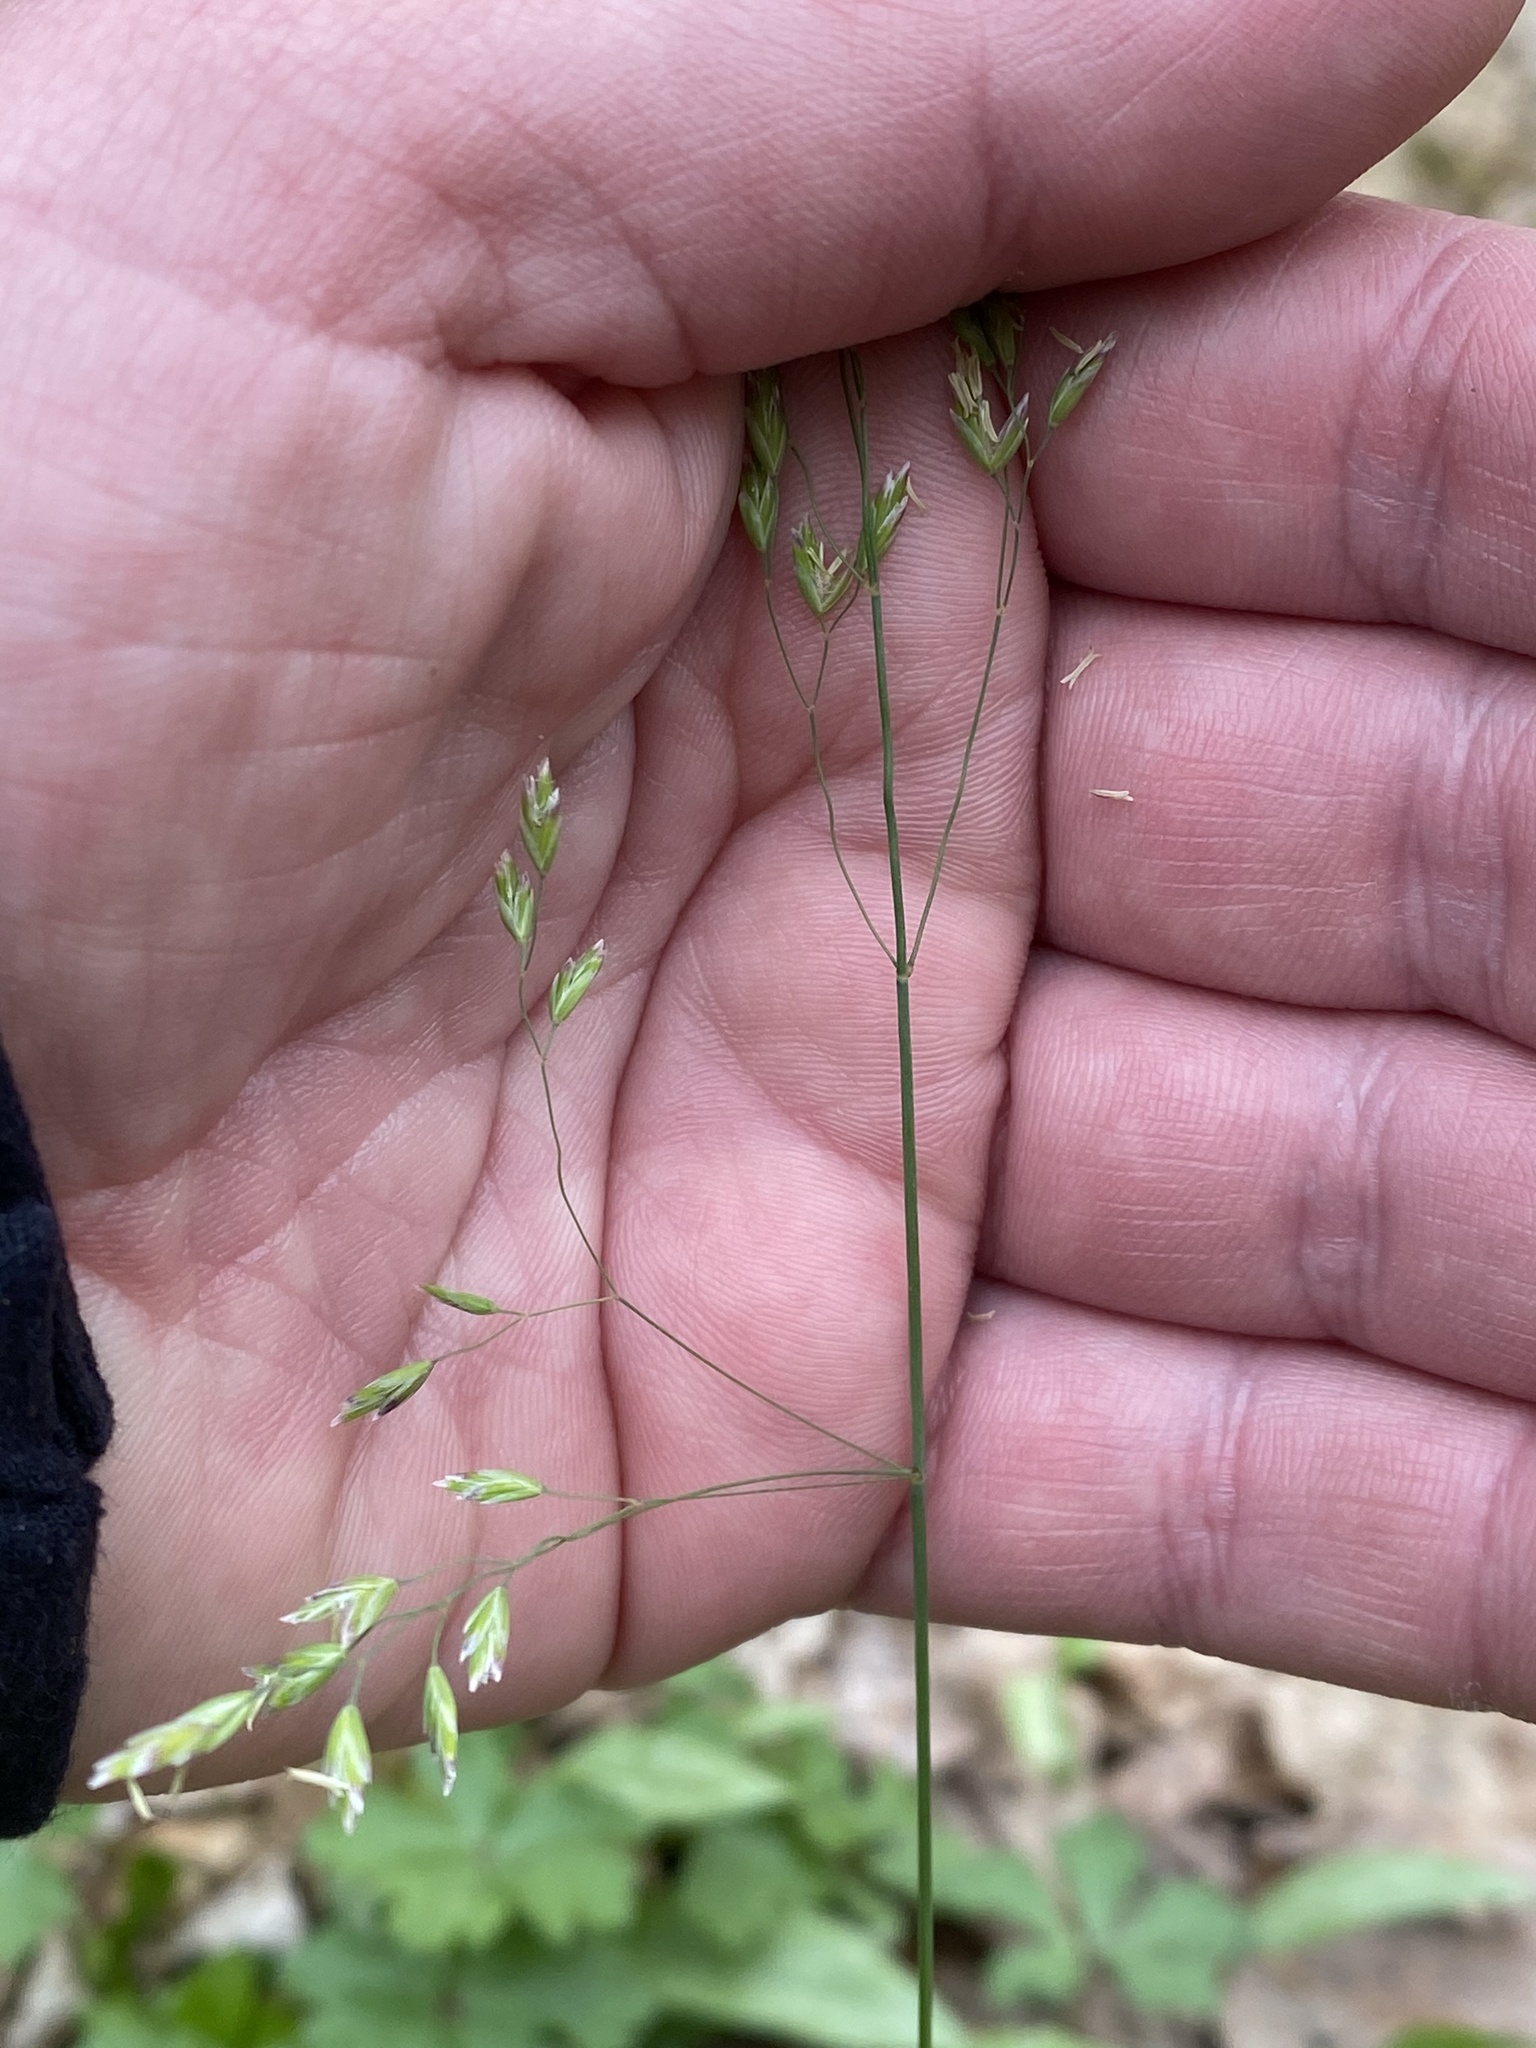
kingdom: Plantae
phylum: Tracheophyta
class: Liliopsida
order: Poales
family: Poaceae
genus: Milium
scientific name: Milium effusum
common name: Wood millet
